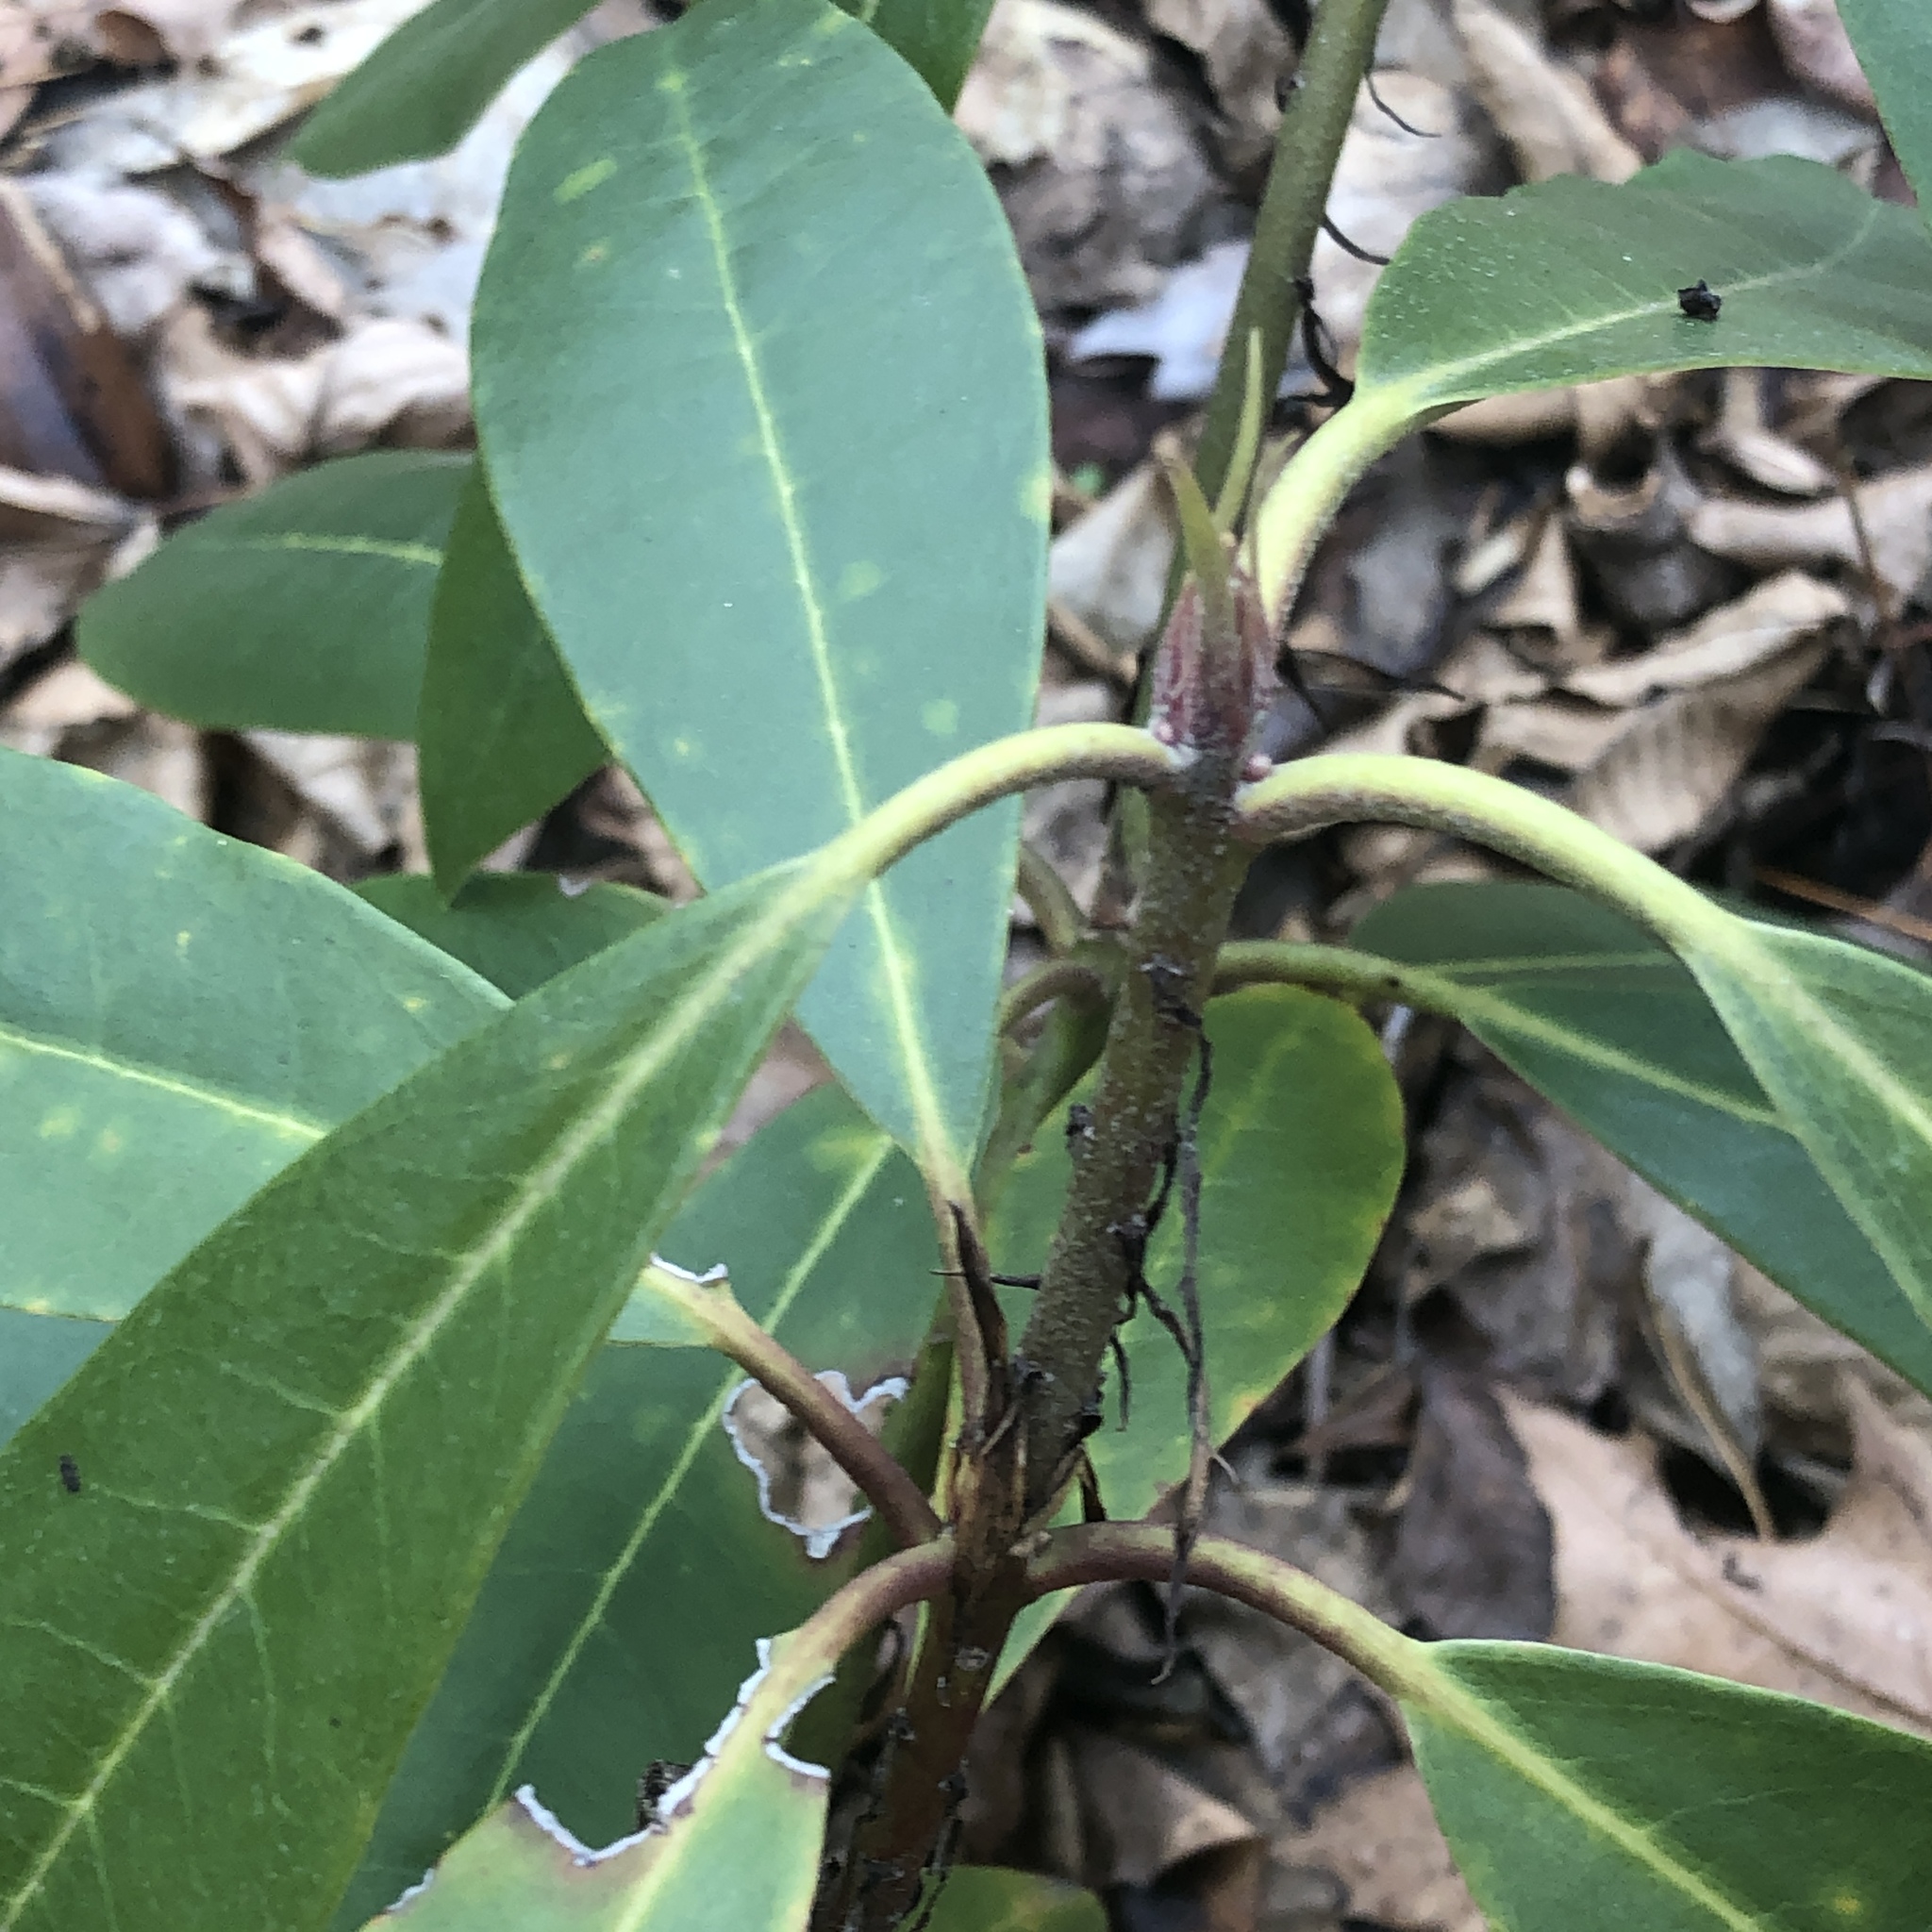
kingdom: Plantae
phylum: Tracheophyta
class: Magnoliopsida
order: Ericales
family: Ericaceae
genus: Rhododendron
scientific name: Rhododendron maximum
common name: Great rhododendron
